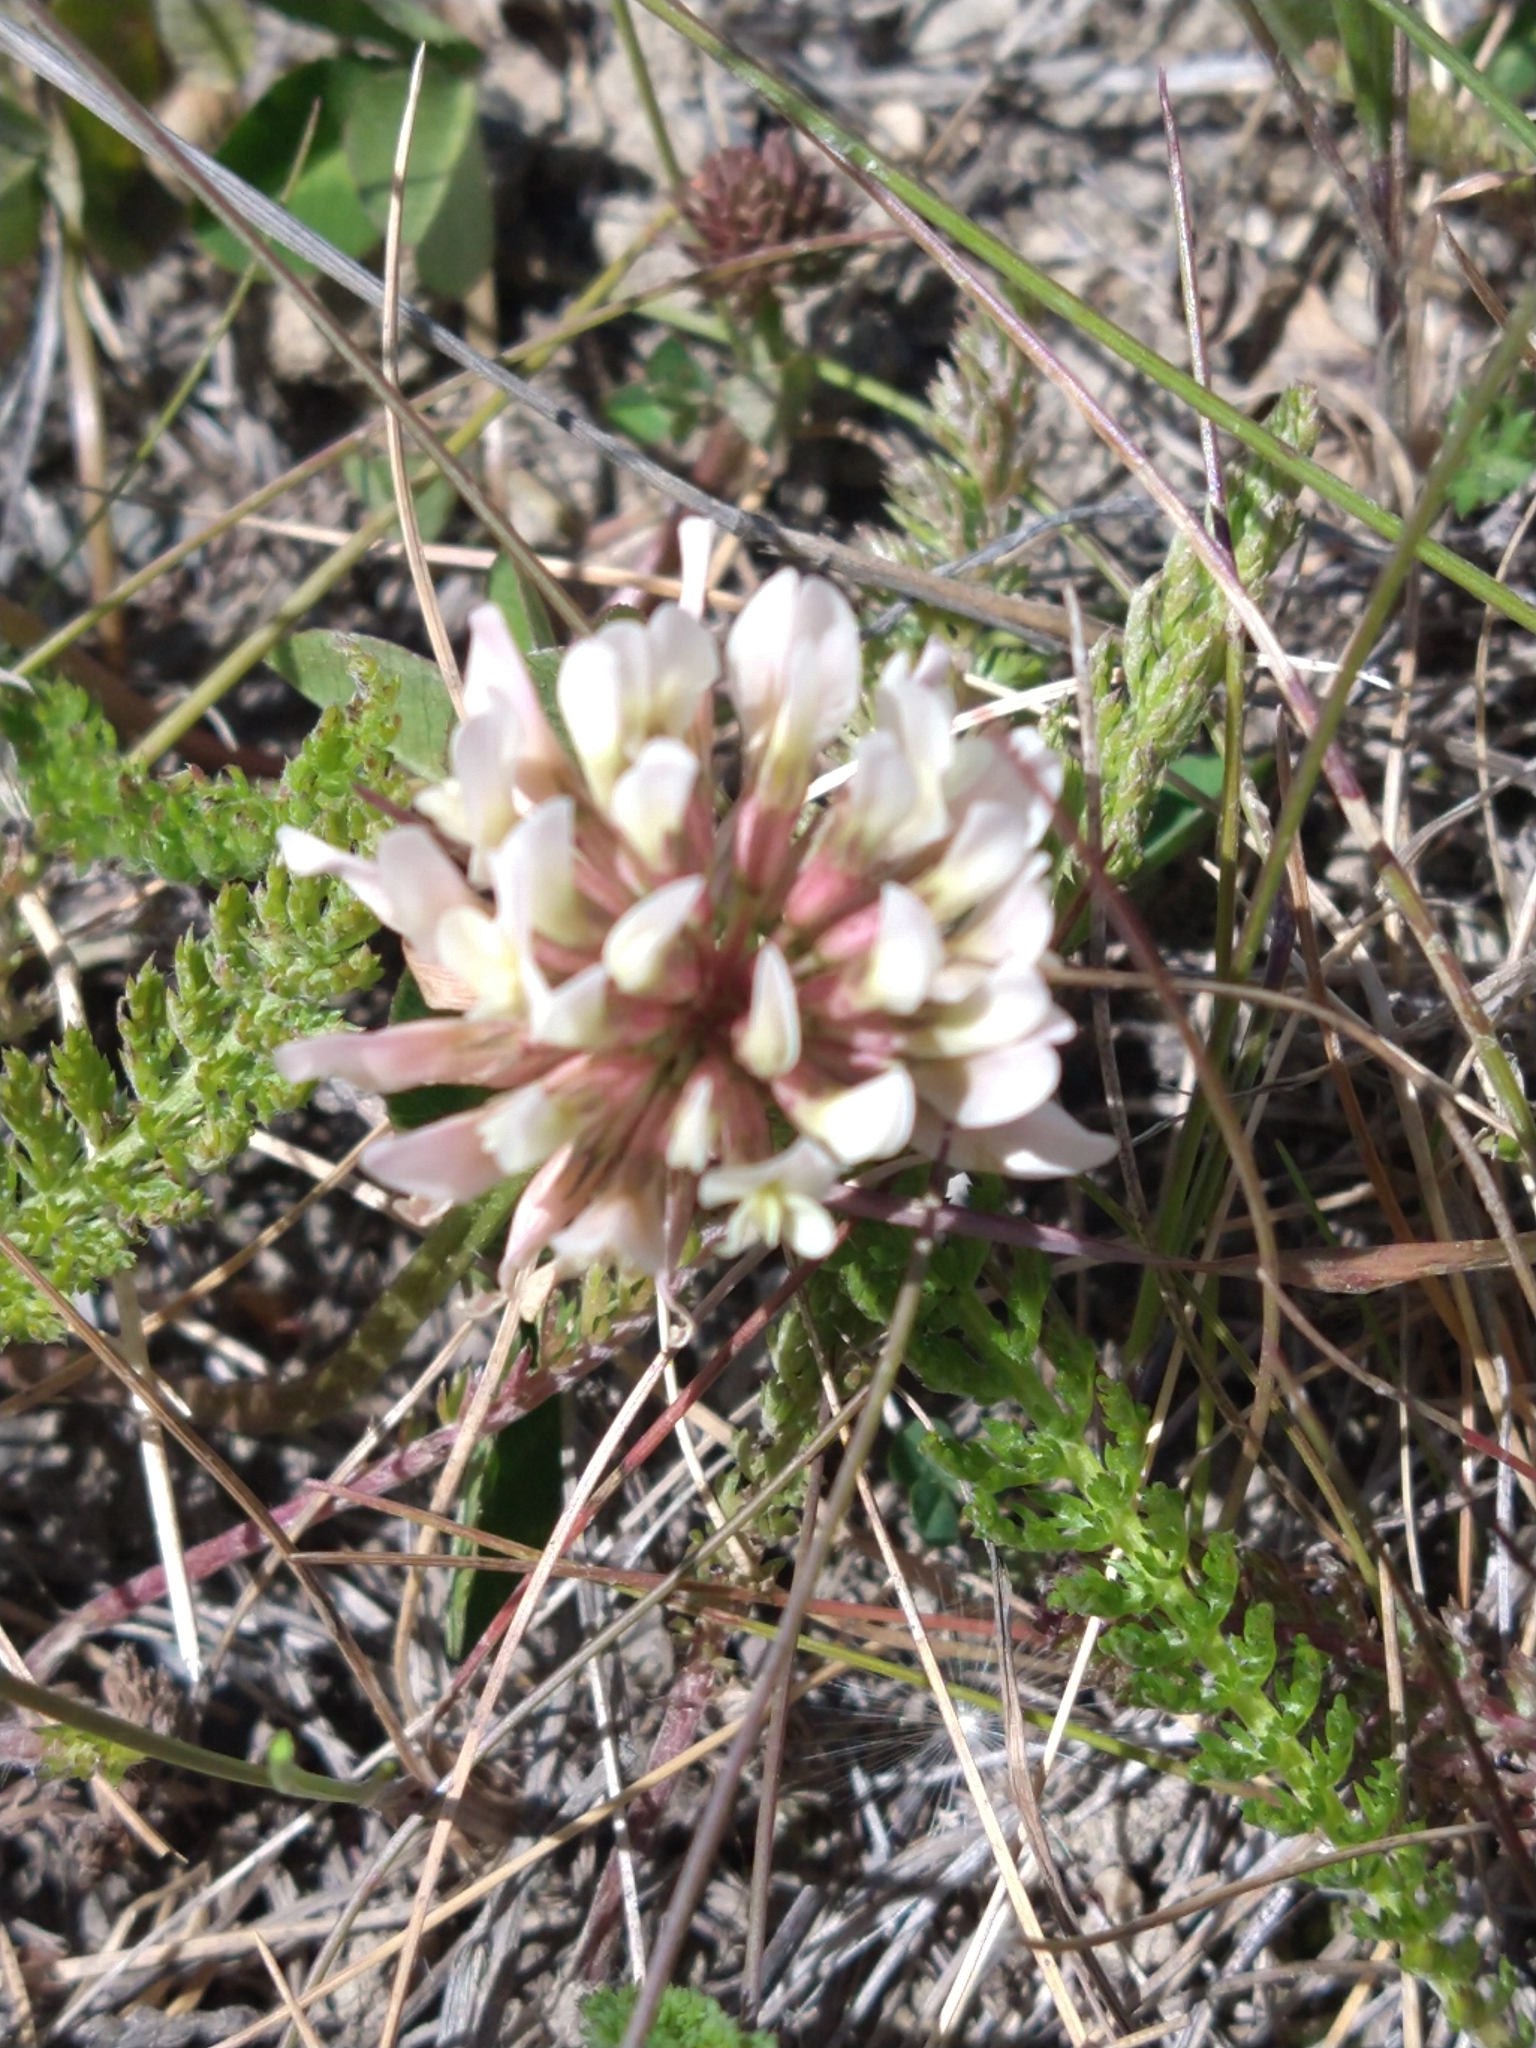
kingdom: Plantae
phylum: Tracheophyta
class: Magnoliopsida
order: Fabales
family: Fabaceae
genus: Trifolium
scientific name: Trifolium repens
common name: White clover
